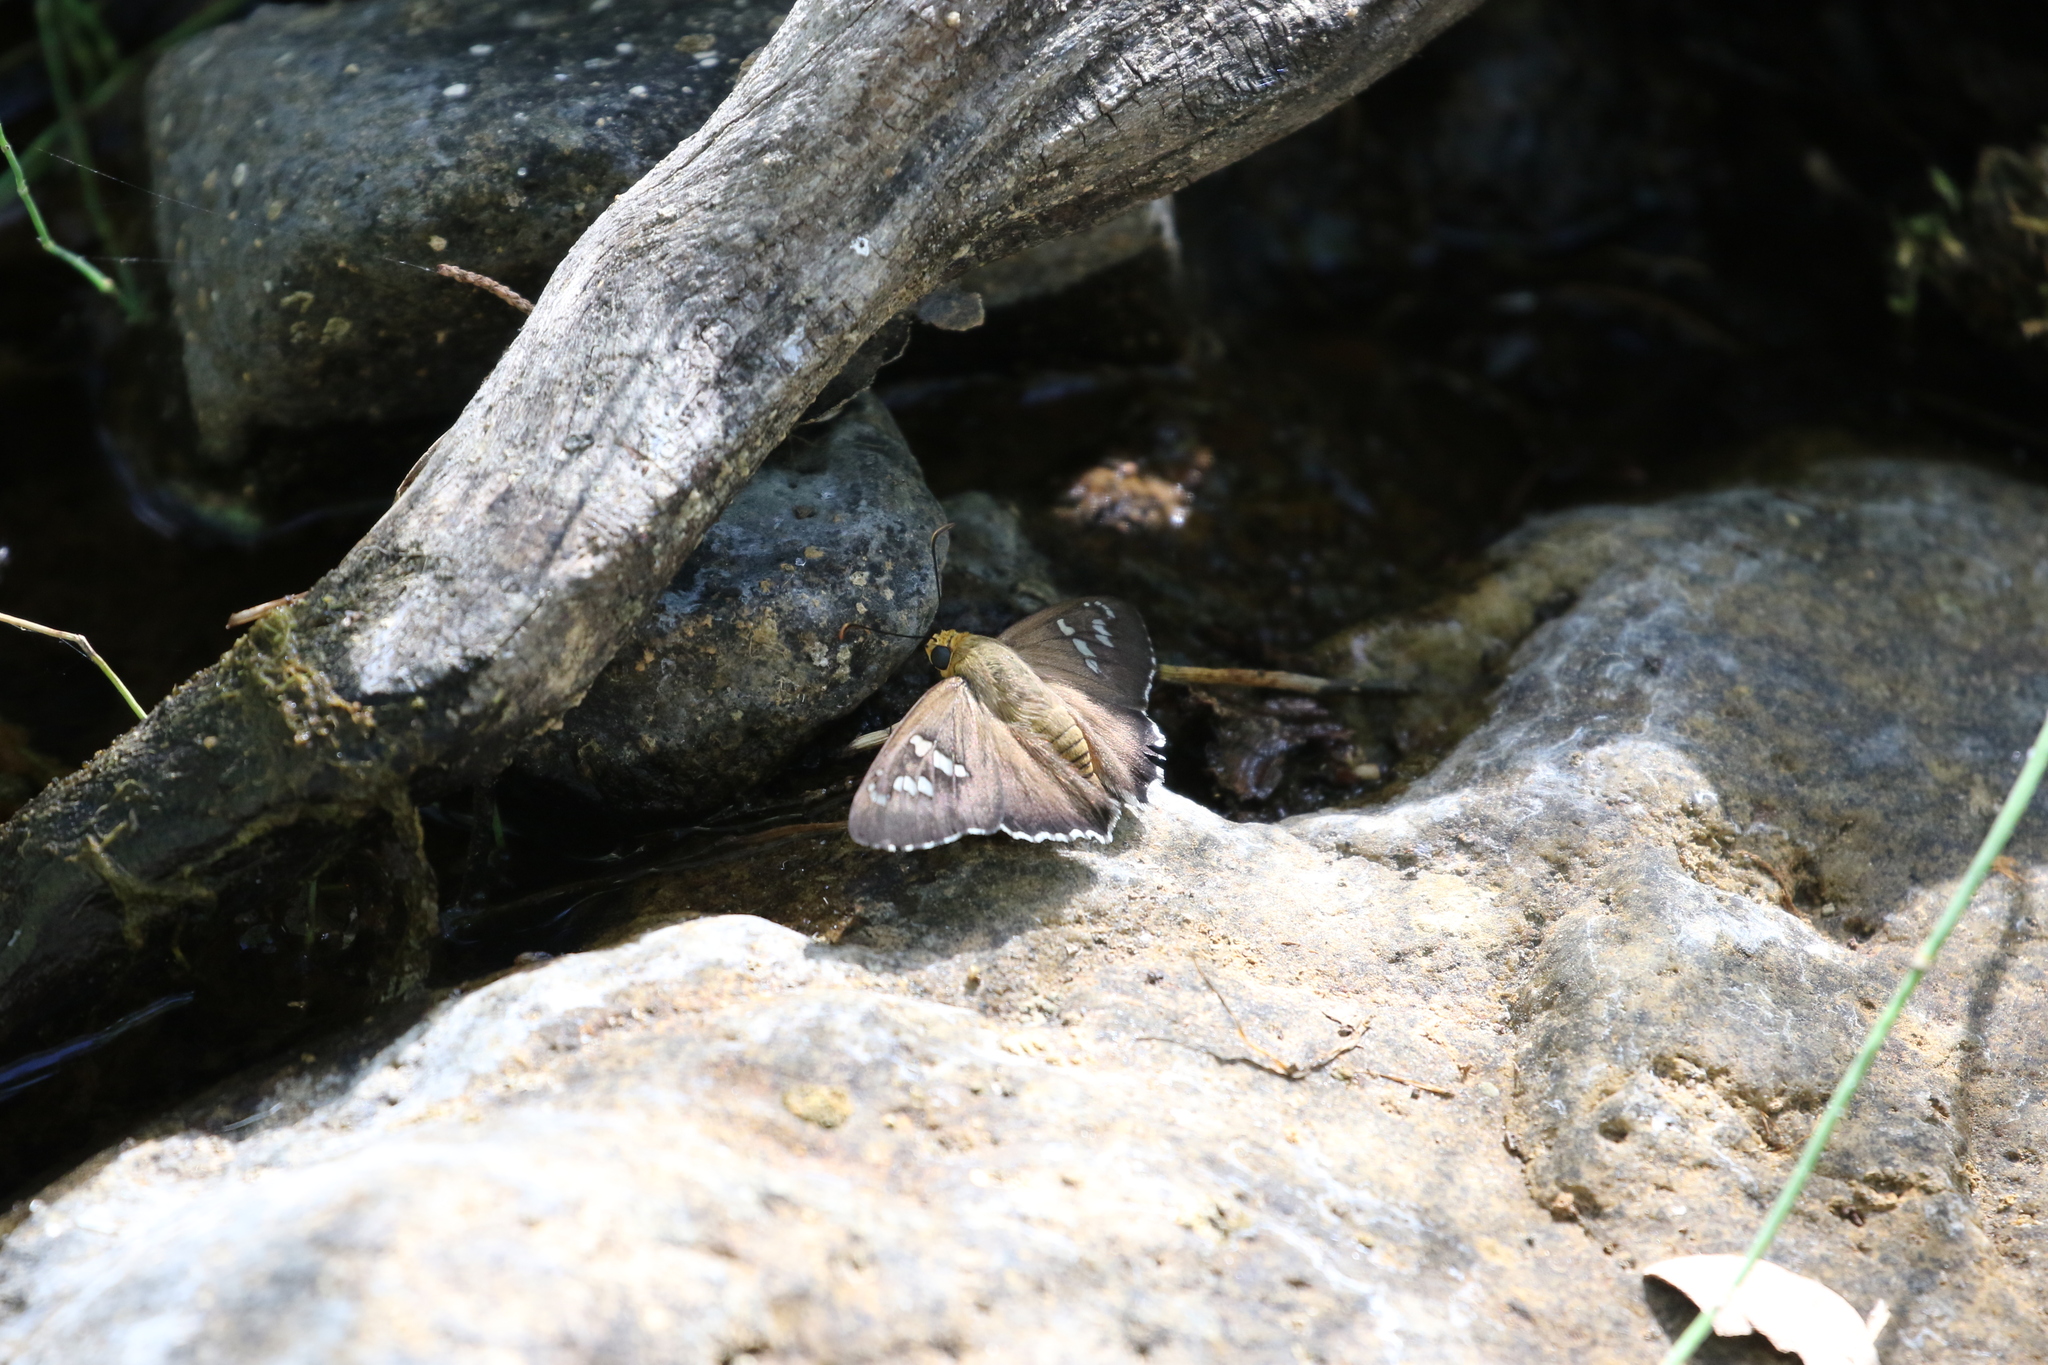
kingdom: Animalia
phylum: Arthropoda
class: Insecta
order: Lepidoptera
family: Hesperiidae
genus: Pyrrhopyge
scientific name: Pyrrhopyge araxes
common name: Dull firetip
